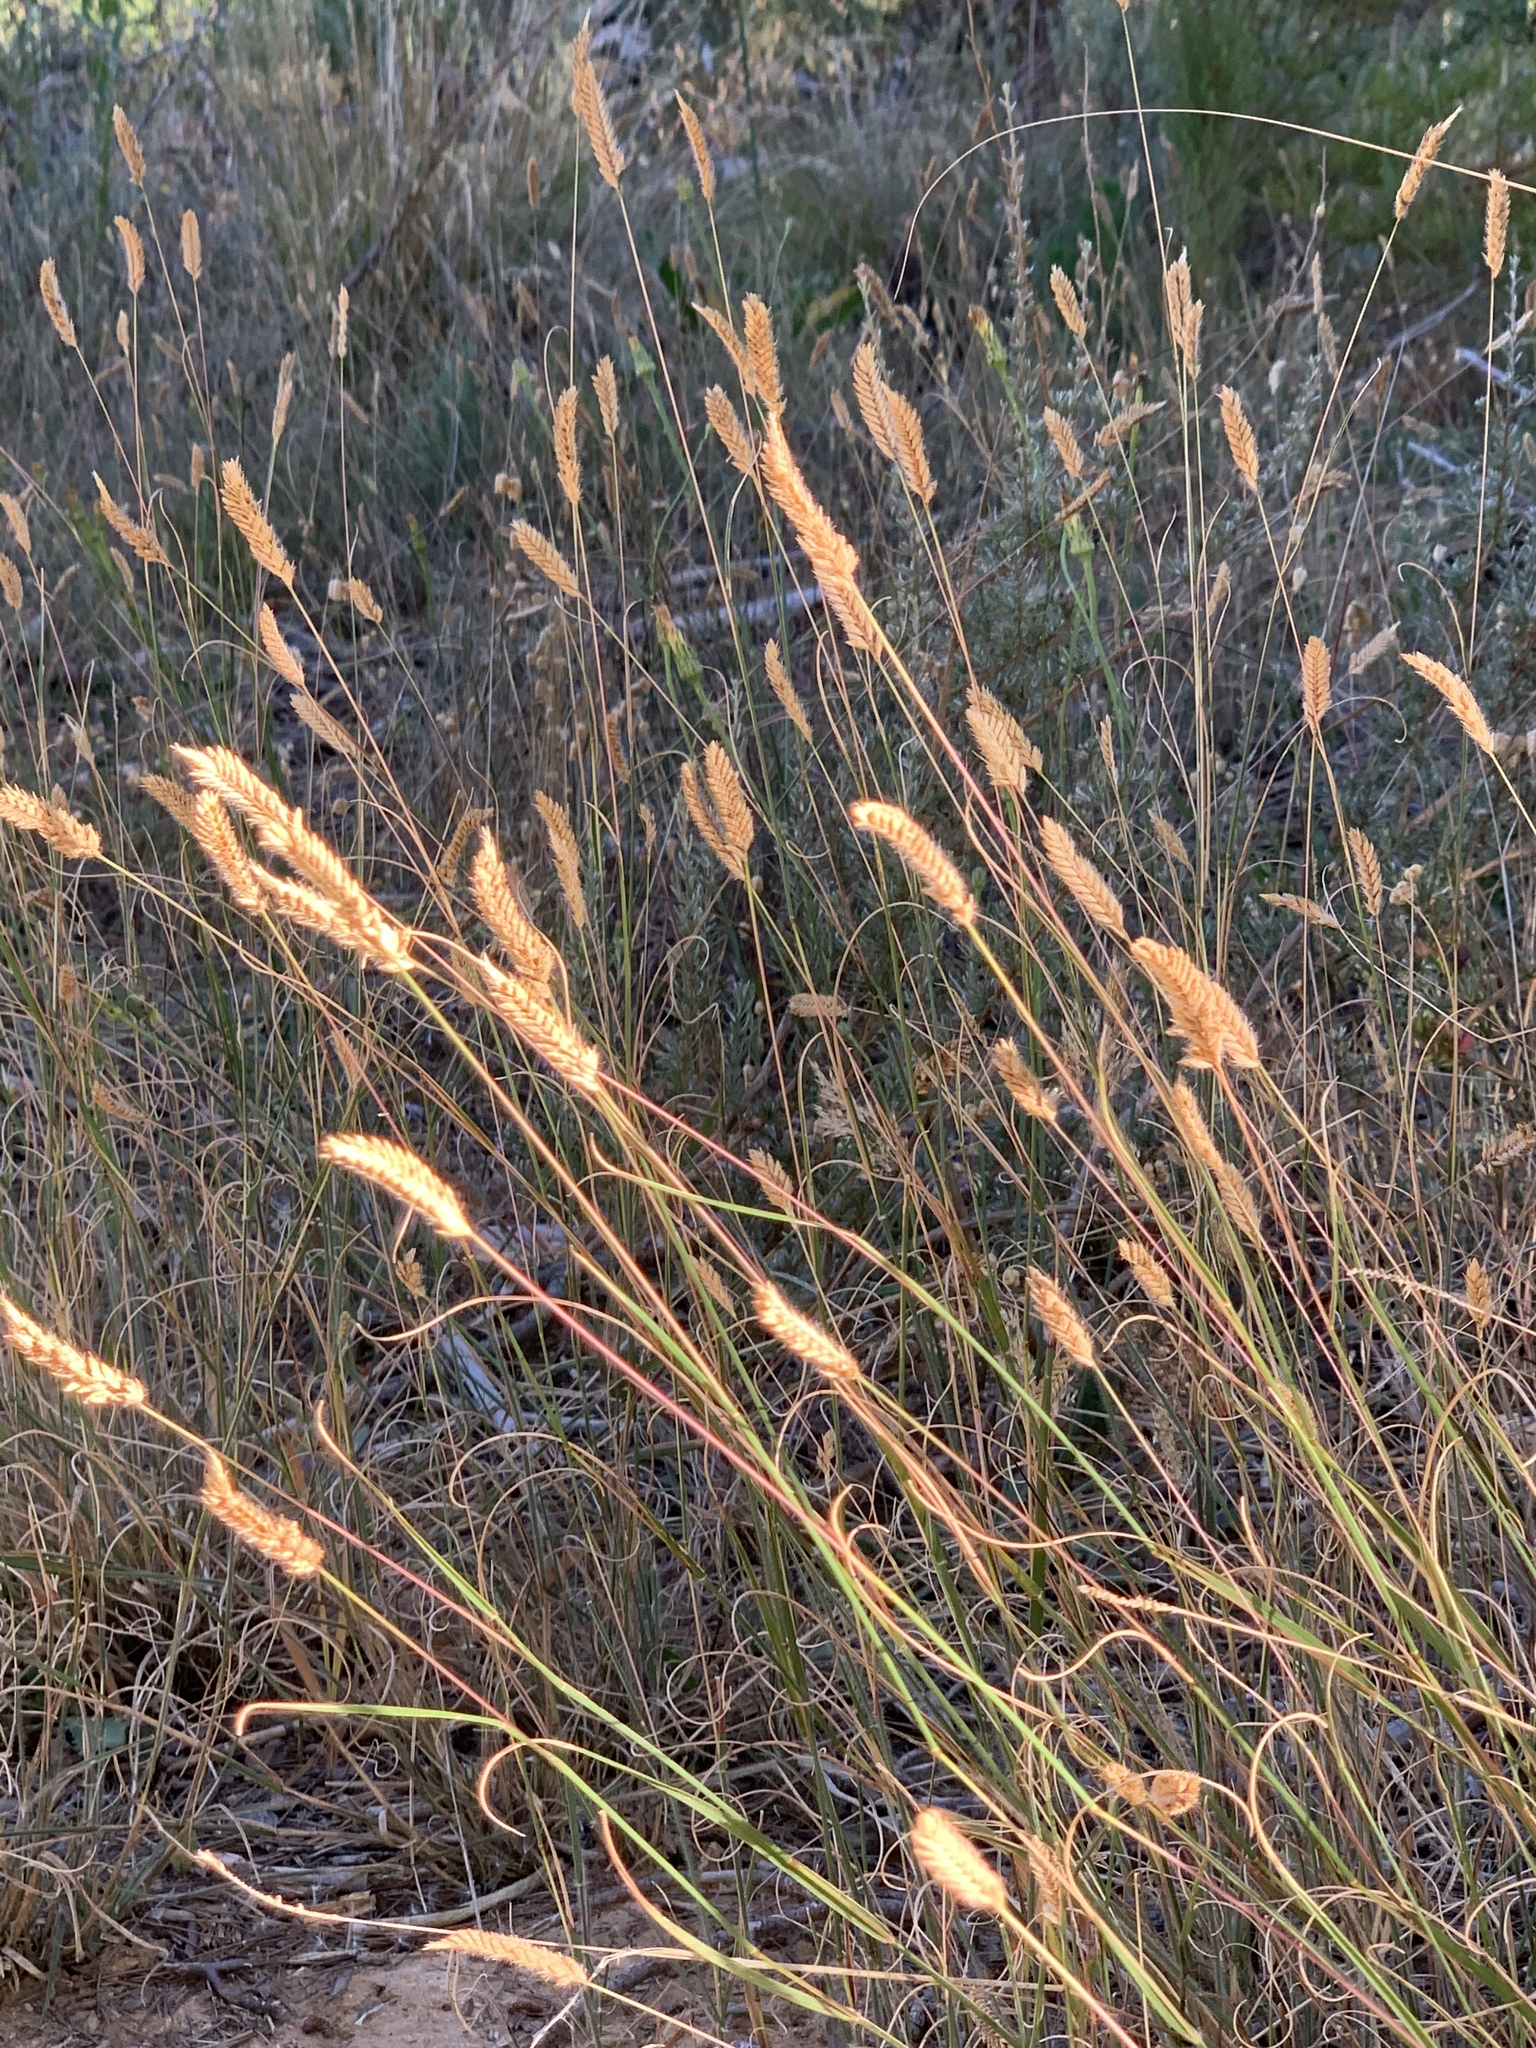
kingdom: Plantae
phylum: Tracheophyta
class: Liliopsida
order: Poales
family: Poaceae
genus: Tribolium
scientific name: Tribolium uniolae
